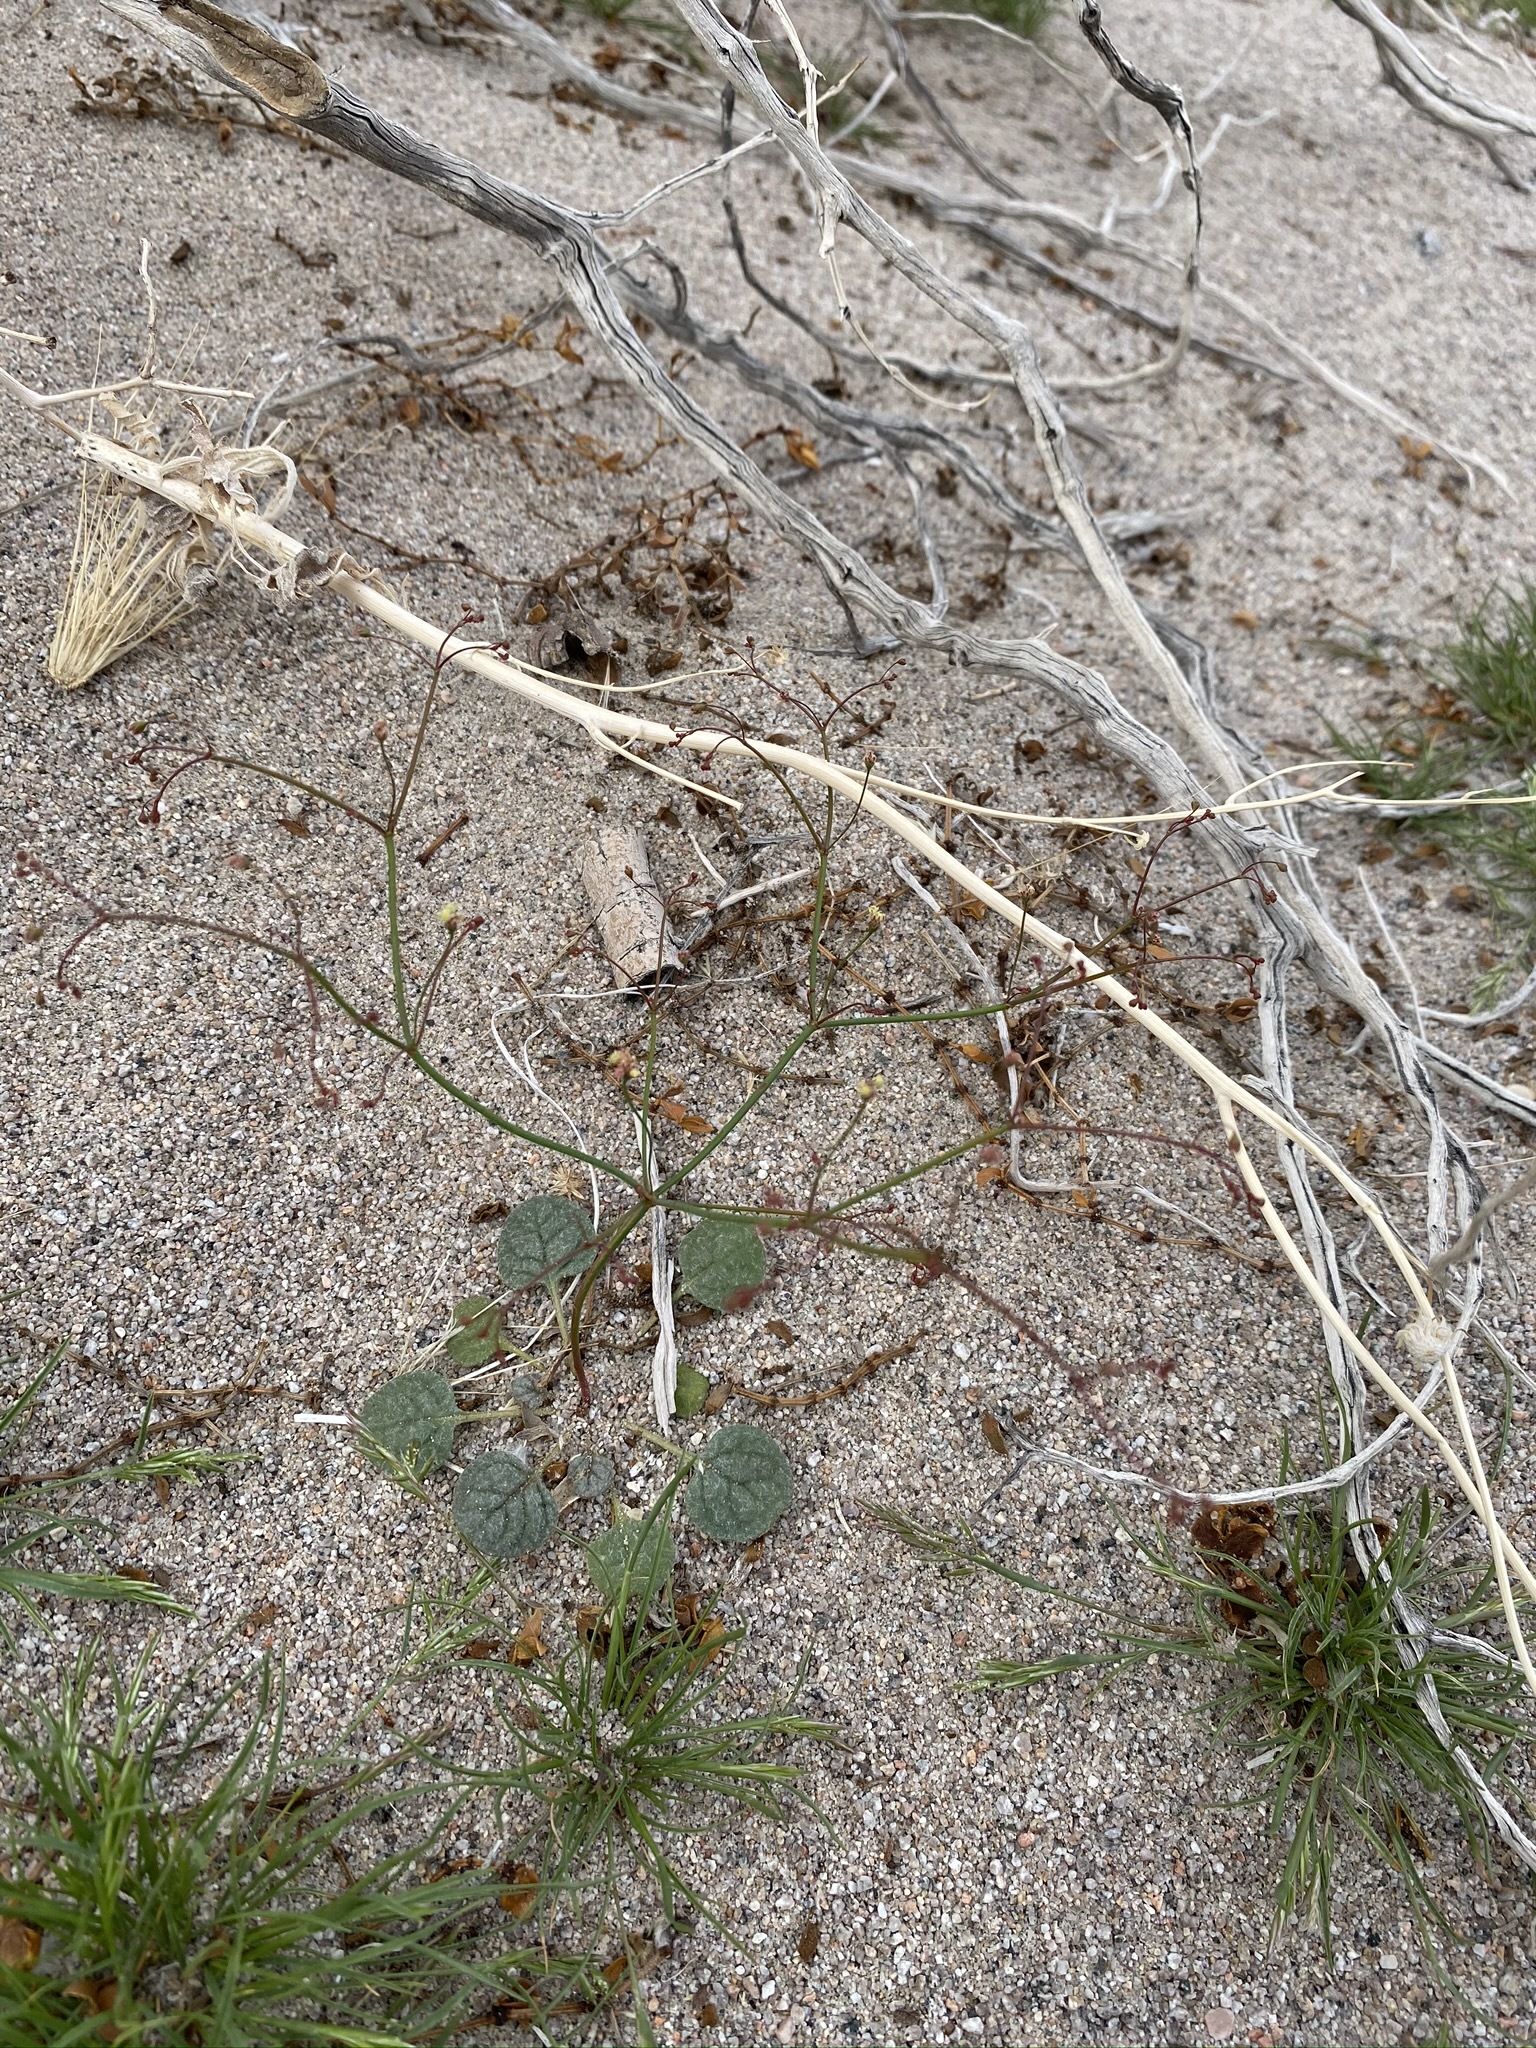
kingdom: Plantae
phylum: Tracheophyta
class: Magnoliopsida
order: Caryophyllales
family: Polygonaceae
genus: Eriogonum
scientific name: Eriogonum thomasii
